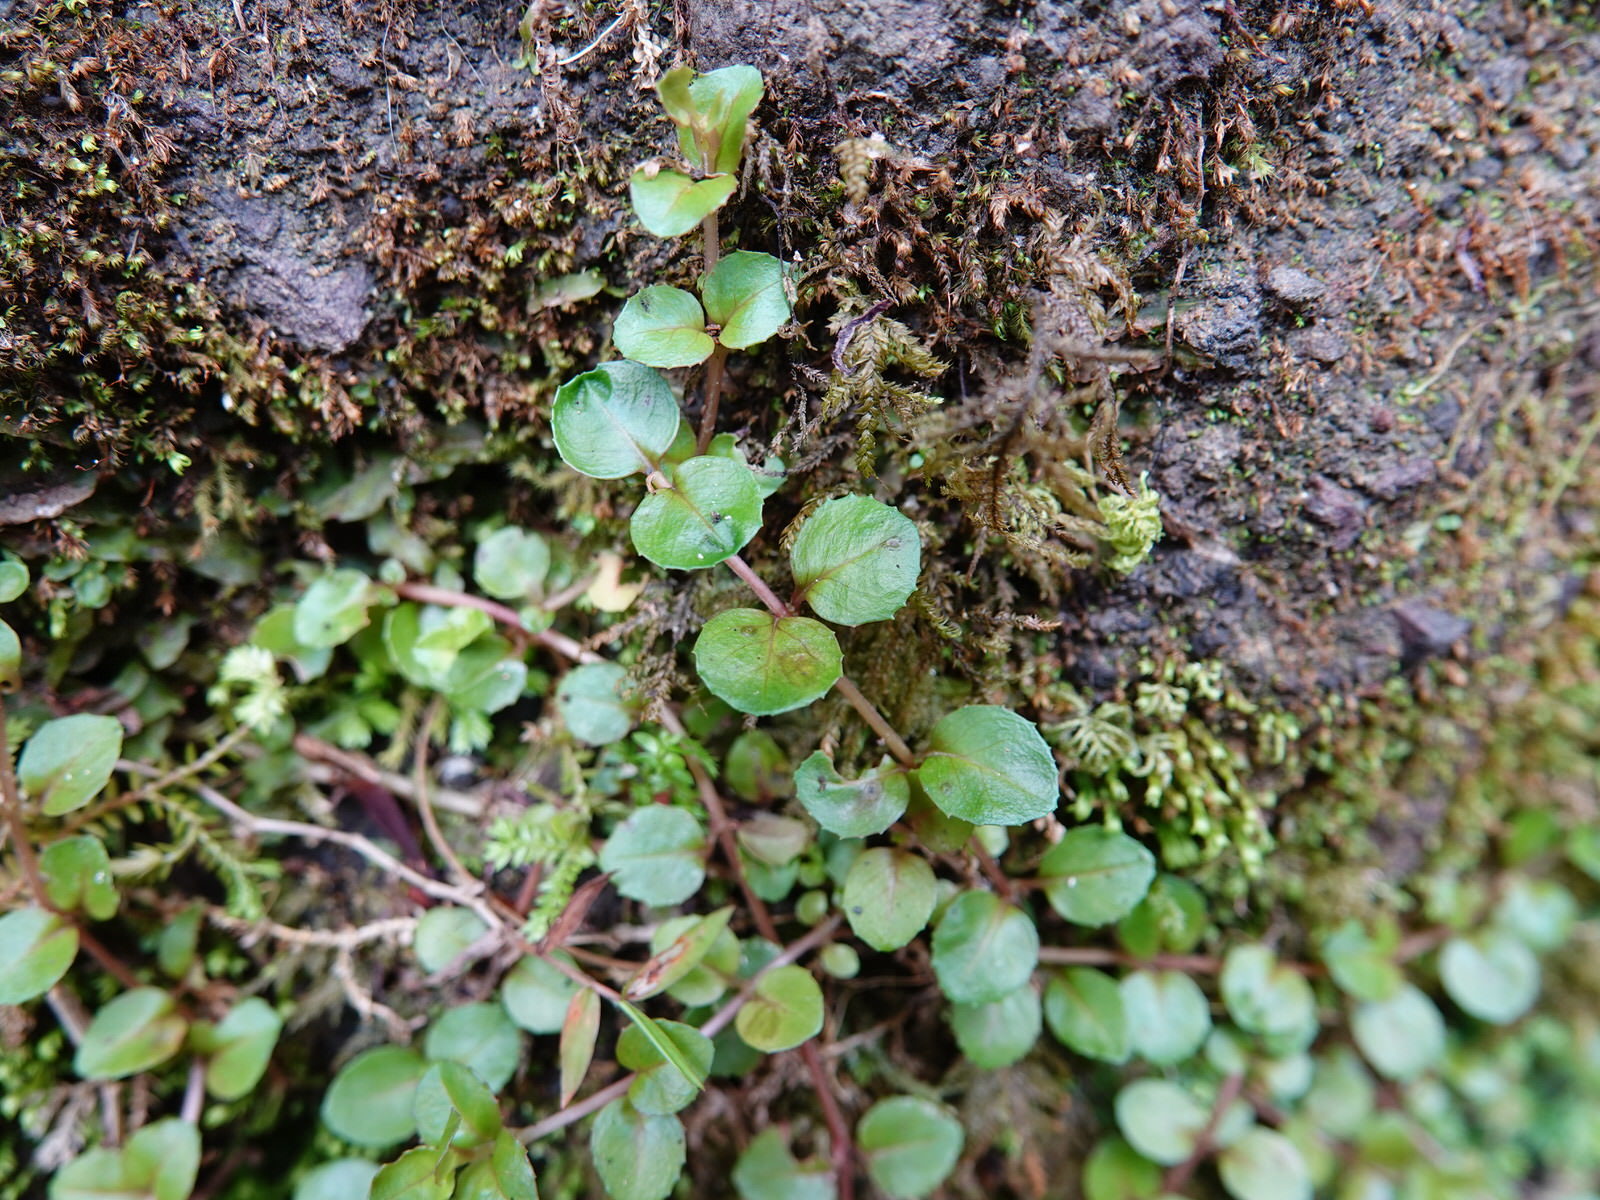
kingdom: Plantae
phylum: Tracheophyta
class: Magnoliopsida
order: Myrtales
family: Onagraceae
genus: Epilobium
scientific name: Epilobium rotundifolium
